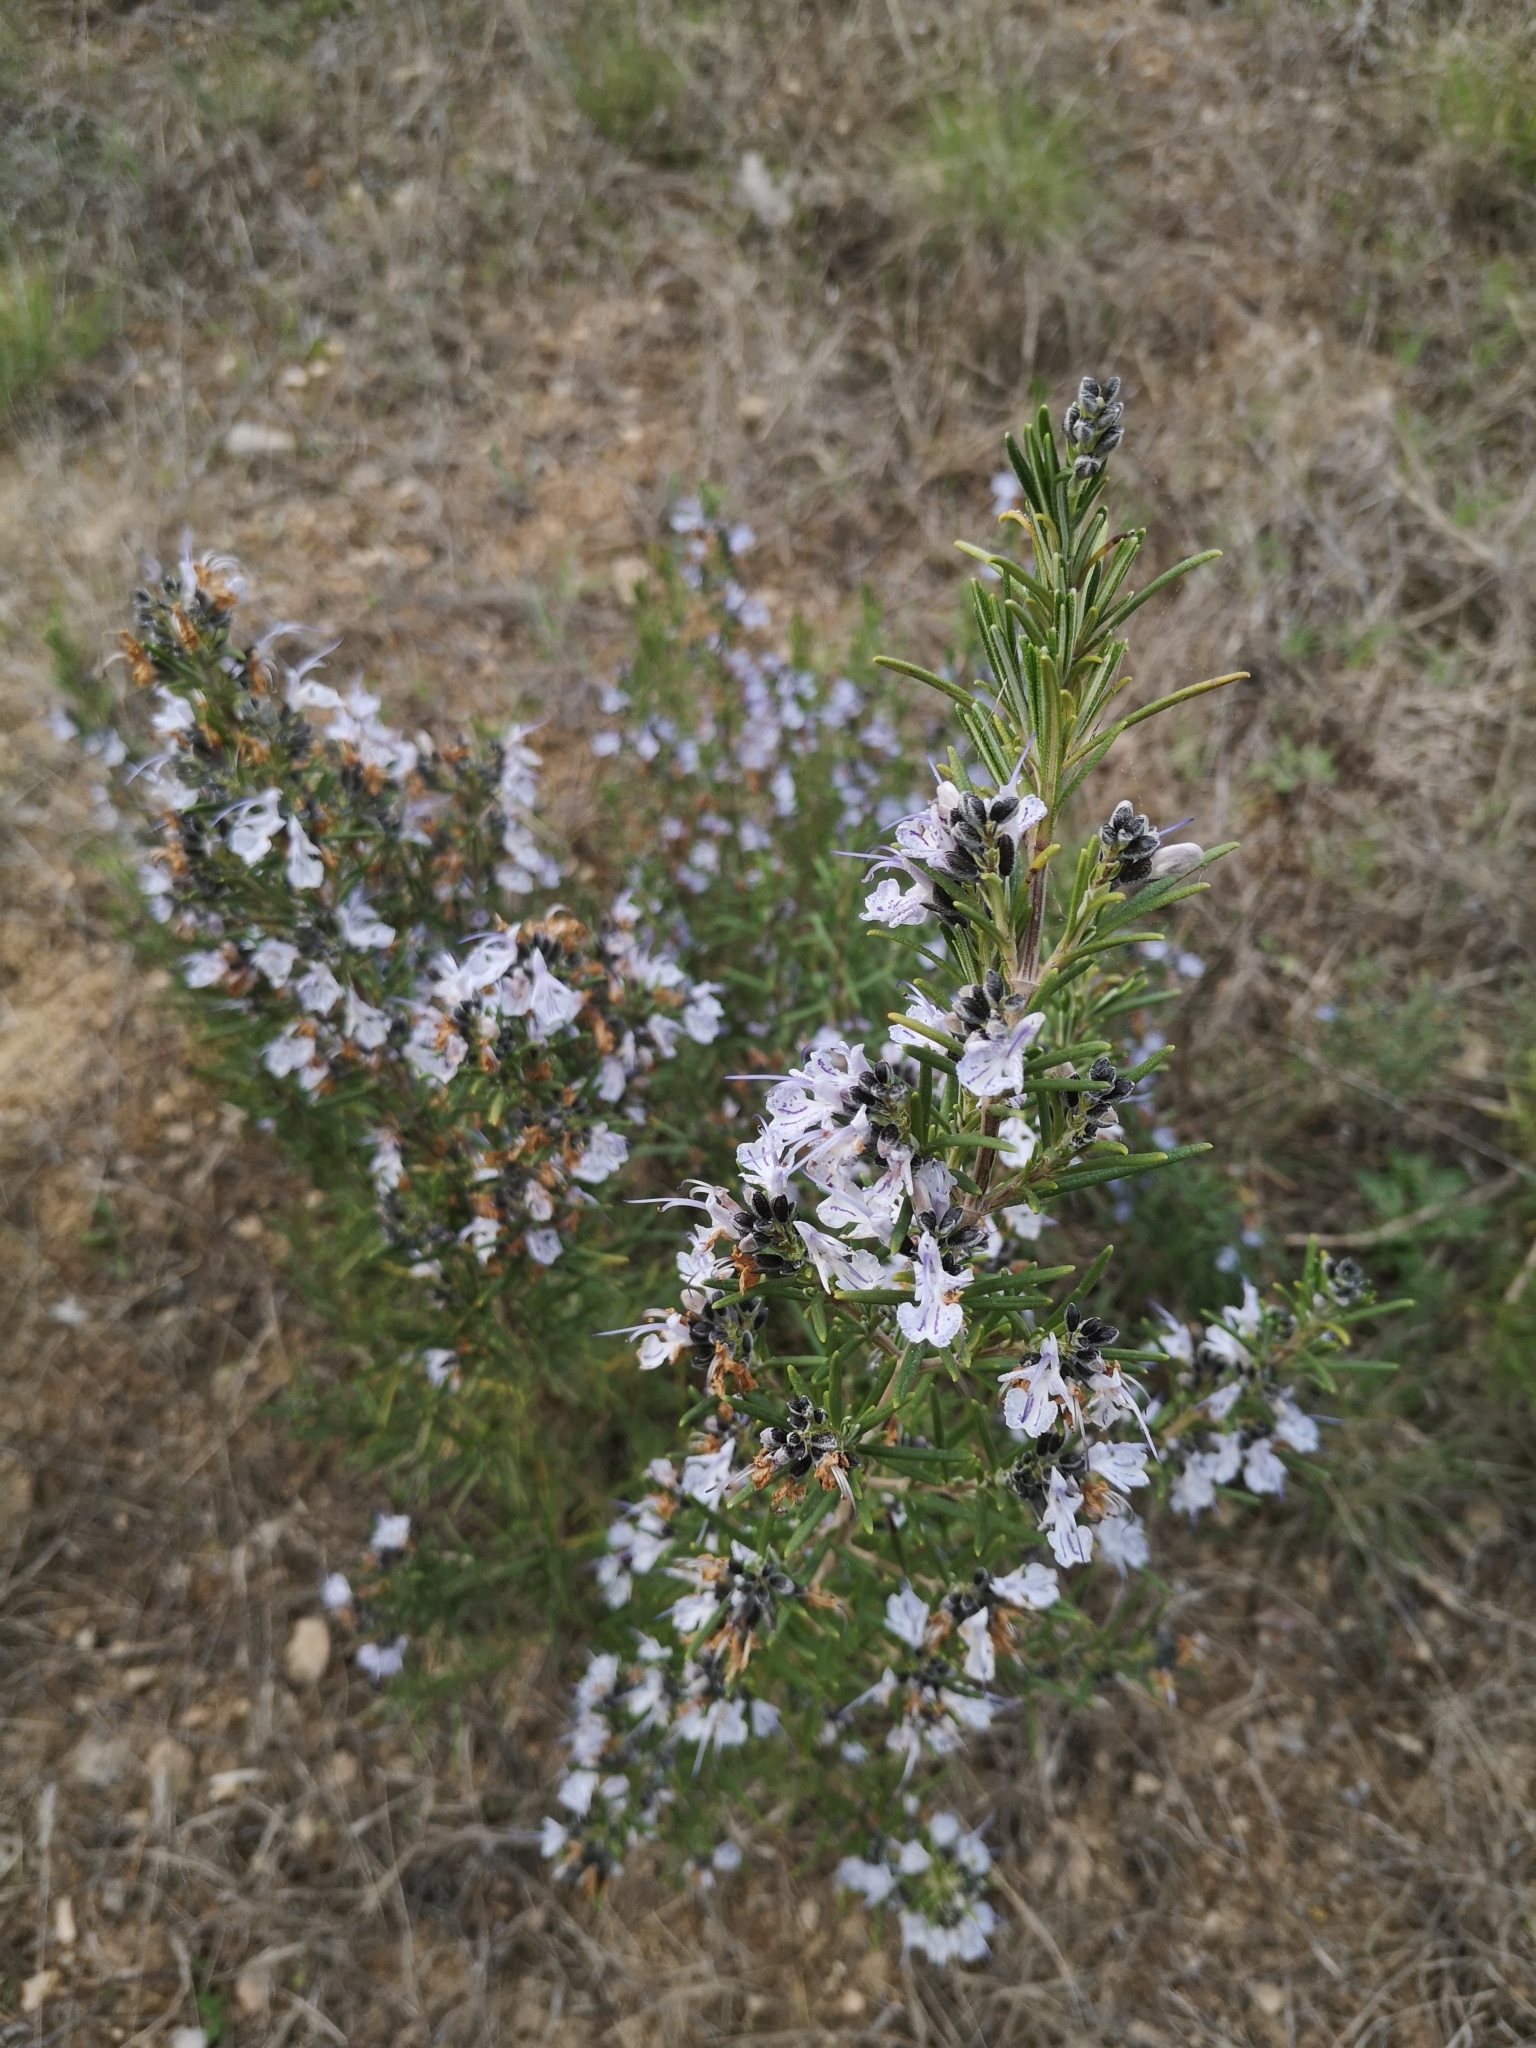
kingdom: Plantae
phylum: Tracheophyta
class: Magnoliopsida
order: Lamiales
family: Lamiaceae
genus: Salvia
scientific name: Salvia rosmarinus
